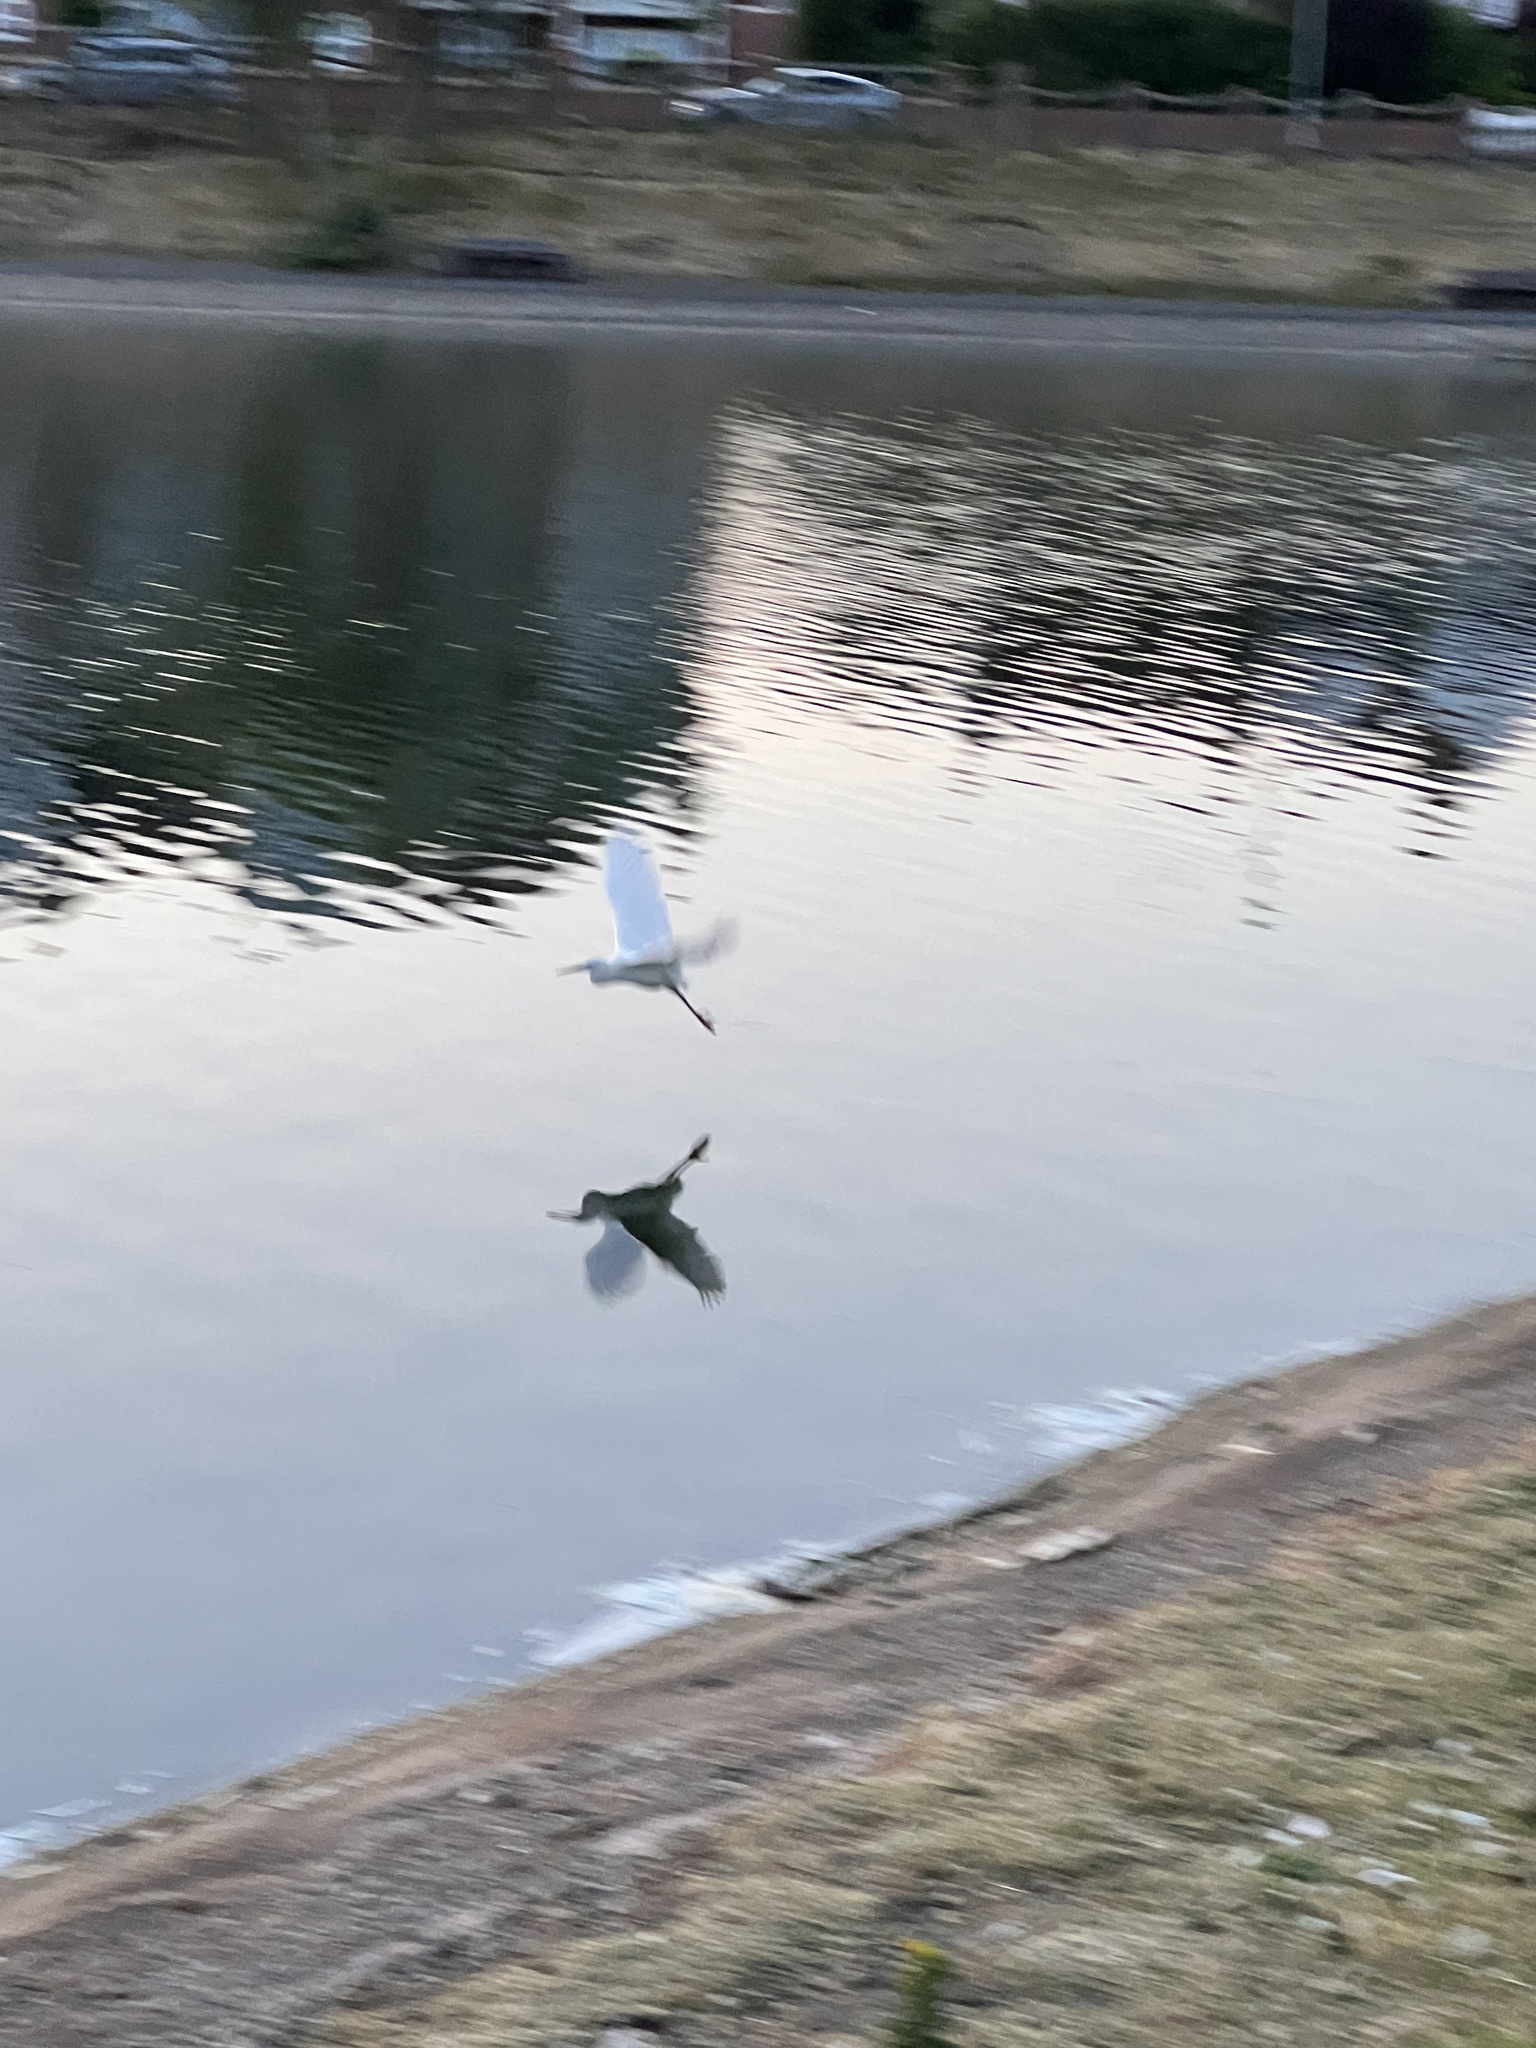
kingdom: Animalia
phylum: Chordata
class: Aves
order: Pelecaniformes
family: Ardeidae
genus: Egretta
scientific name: Egretta garzetta
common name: Little egret
